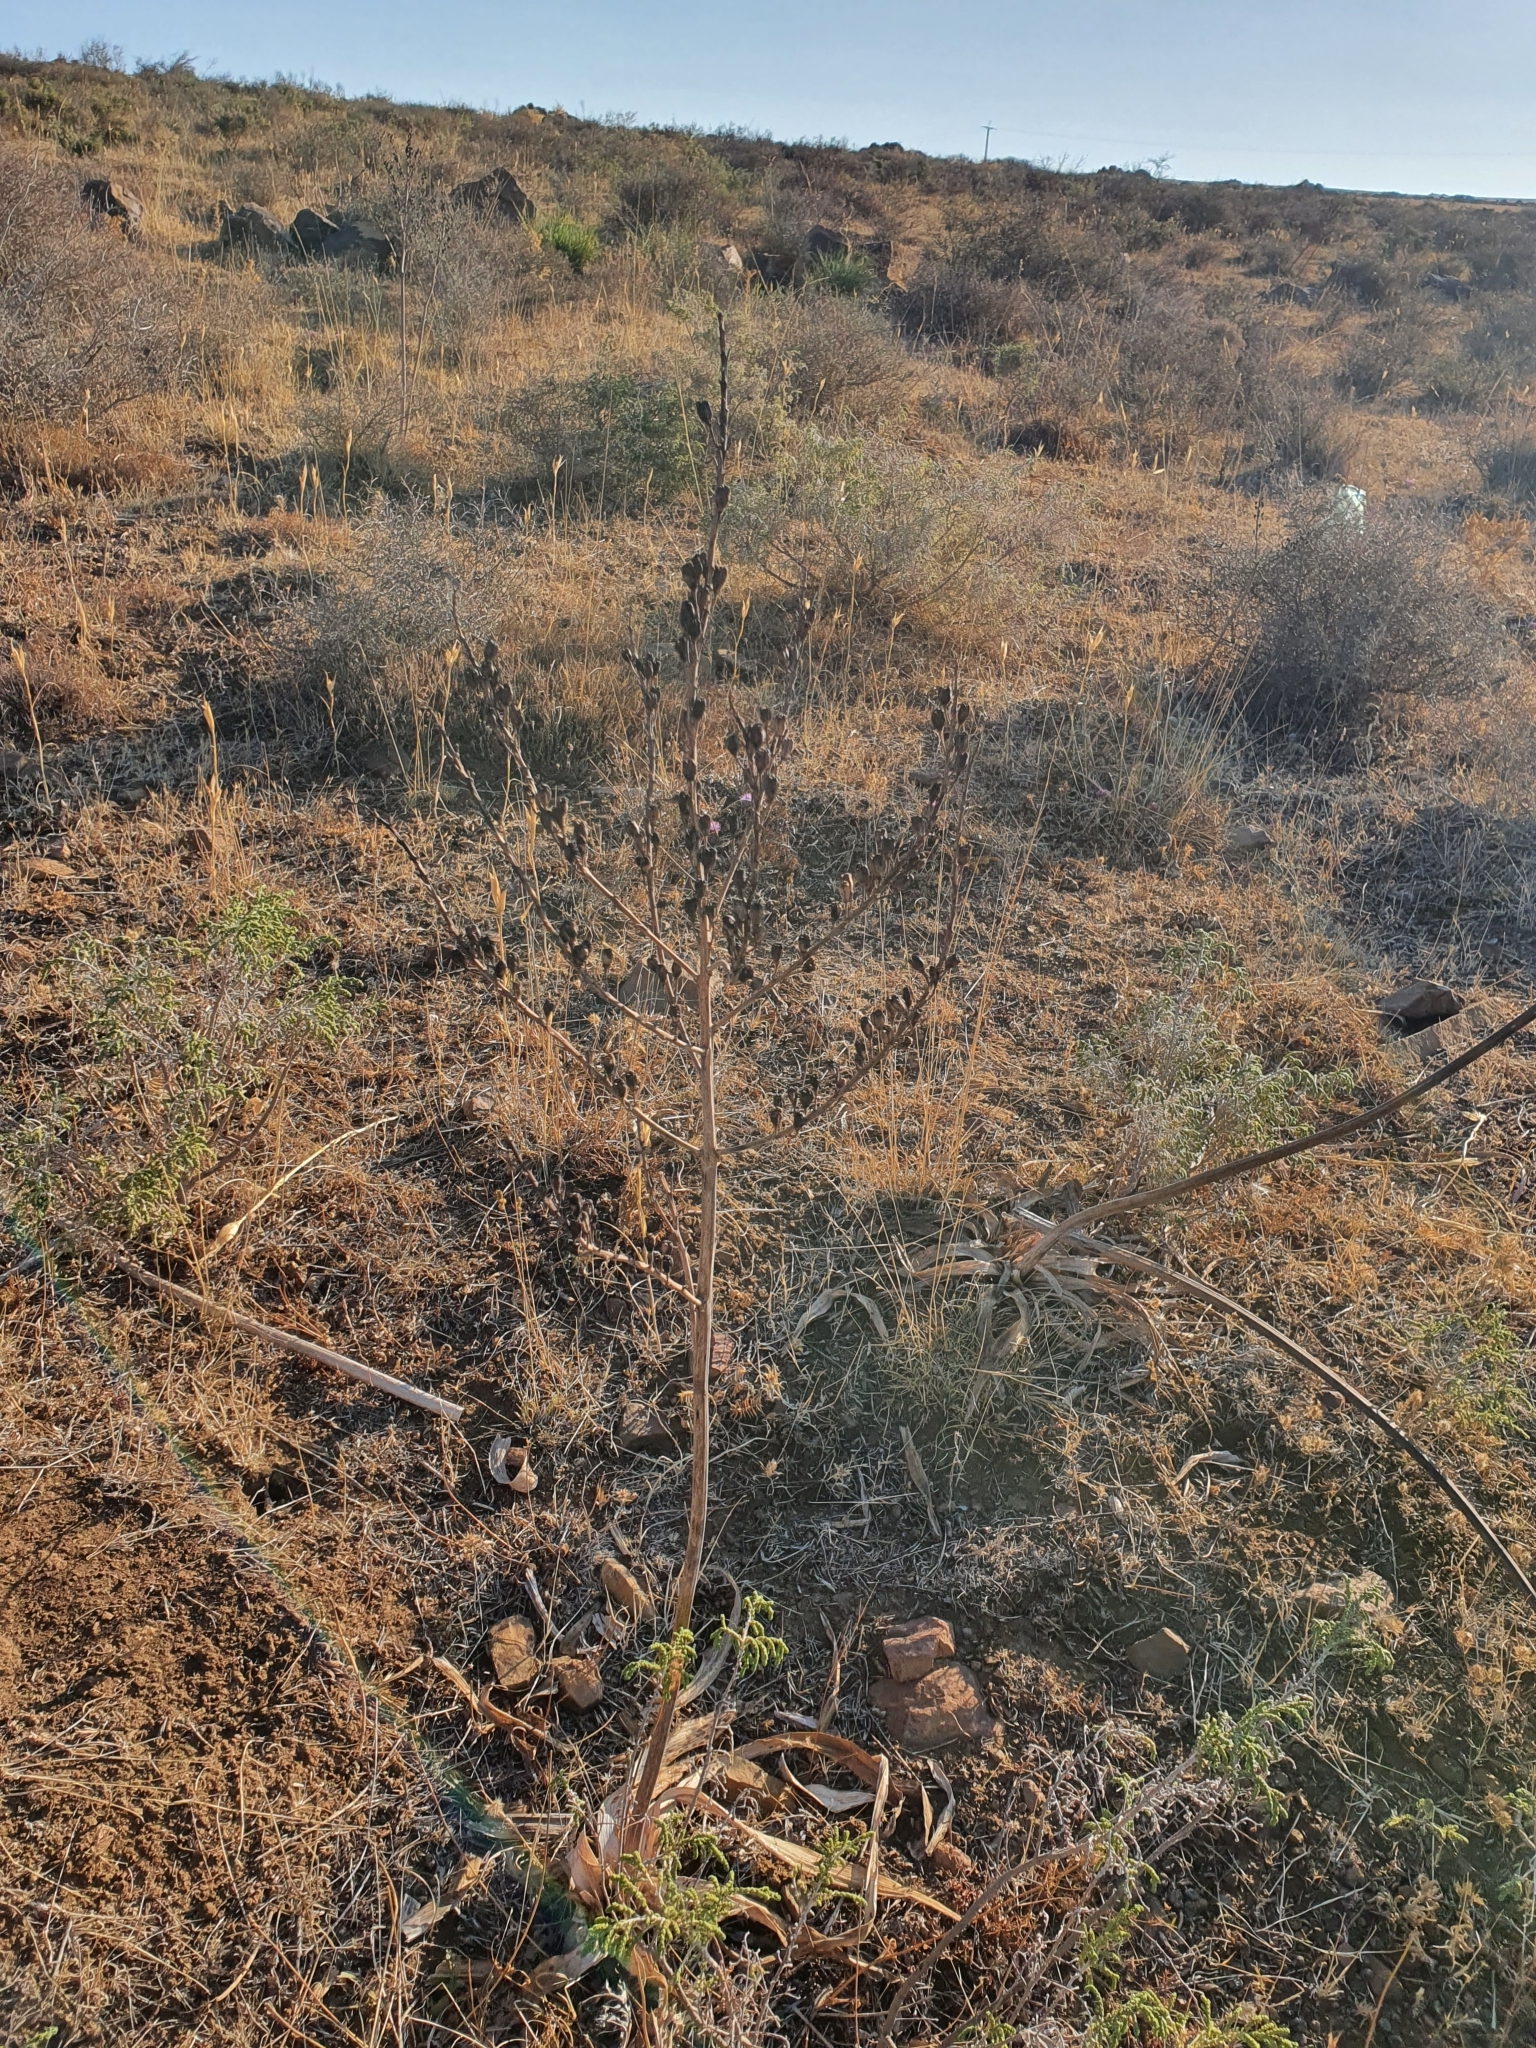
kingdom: Plantae
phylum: Tracheophyta
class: Liliopsida
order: Asparagales
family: Asphodelaceae
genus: Asphodelus
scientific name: Asphodelus ramosus
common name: Silverrod
